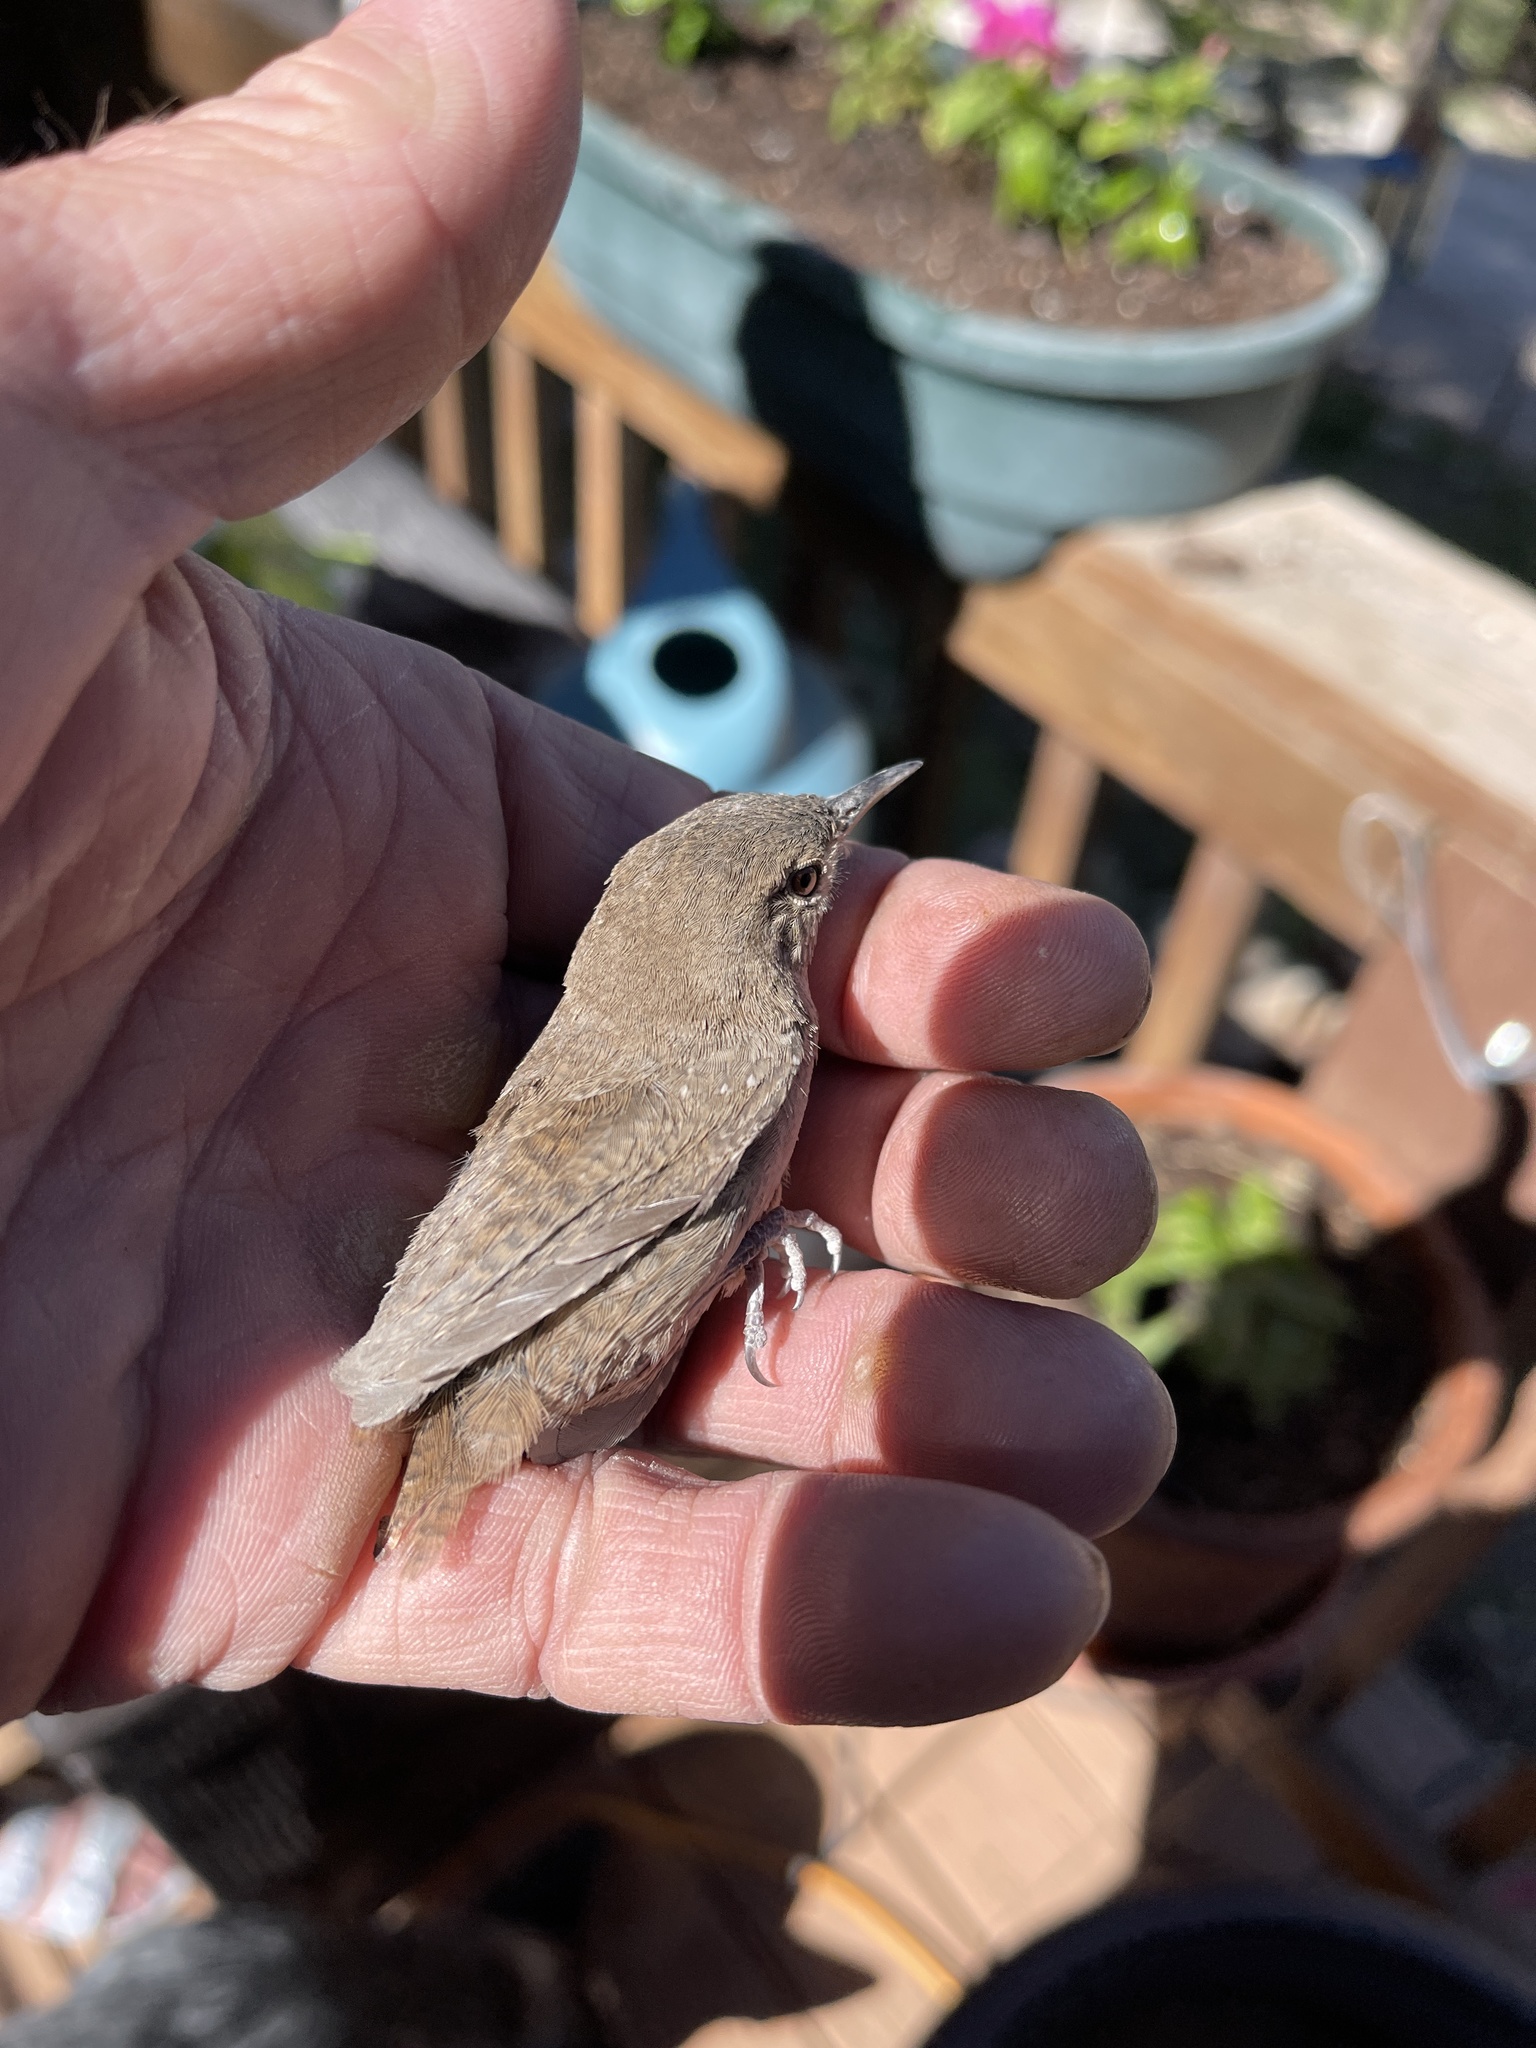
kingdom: Animalia
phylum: Chordata
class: Aves
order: Passeriformes
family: Troglodytidae
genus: Troglodytes
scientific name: Troglodytes aedon
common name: House wren
